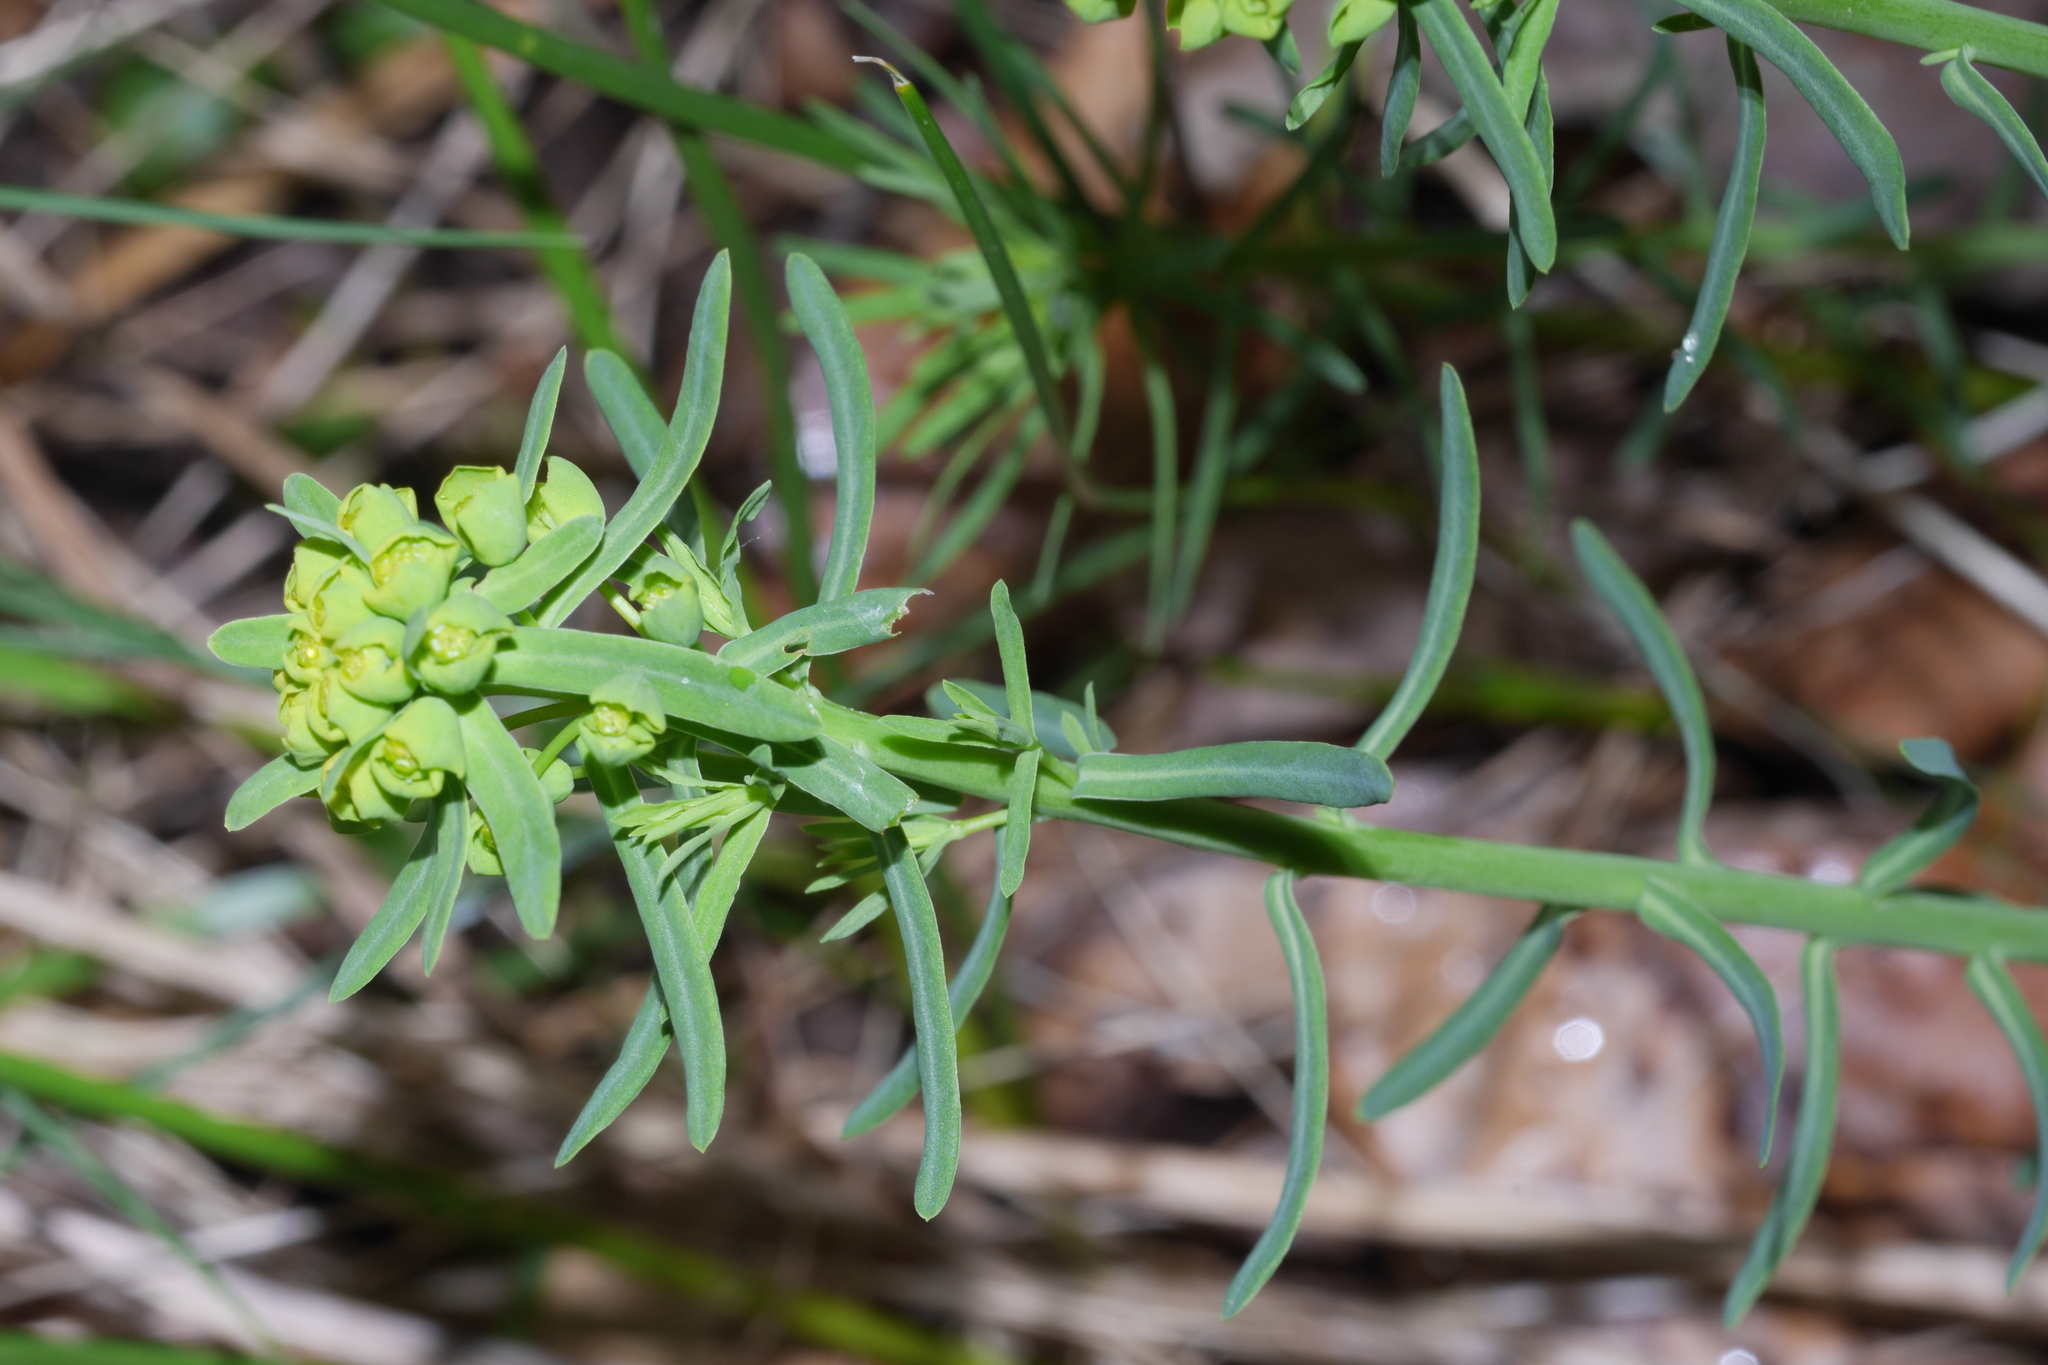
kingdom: Plantae
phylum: Tracheophyta
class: Magnoliopsida
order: Malpighiales
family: Euphorbiaceae
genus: Euphorbia
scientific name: Euphorbia cyparissias
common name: Cypress spurge
